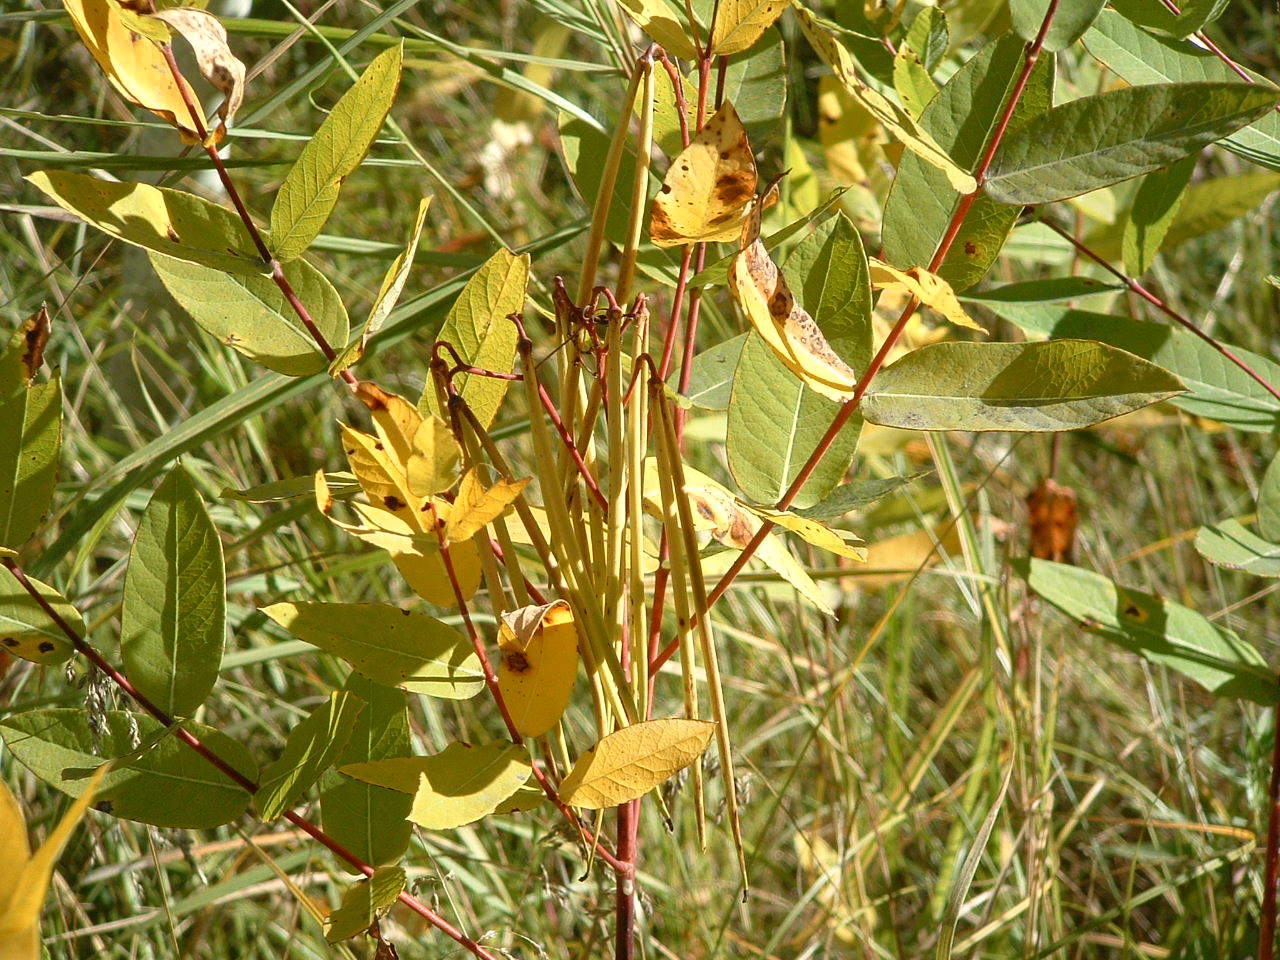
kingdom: Plantae
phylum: Tracheophyta
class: Magnoliopsida
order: Gentianales
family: Apocynaceae
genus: Apocynum
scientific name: Apocynum cannabinum
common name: Hemp dogbane
